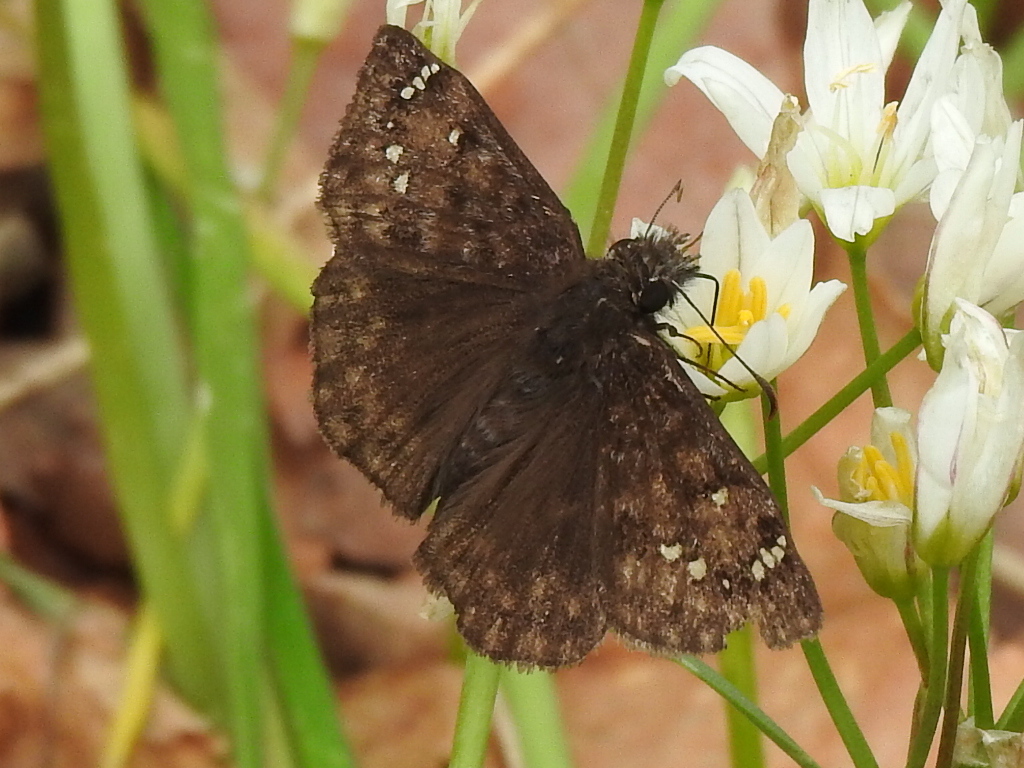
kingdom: Animalia
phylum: Arthropoda
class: Insecta
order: Lepidoptera
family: Hesperiidae
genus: Erynnis
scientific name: Erynnis juvenalis
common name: Juvenal's duskywing
